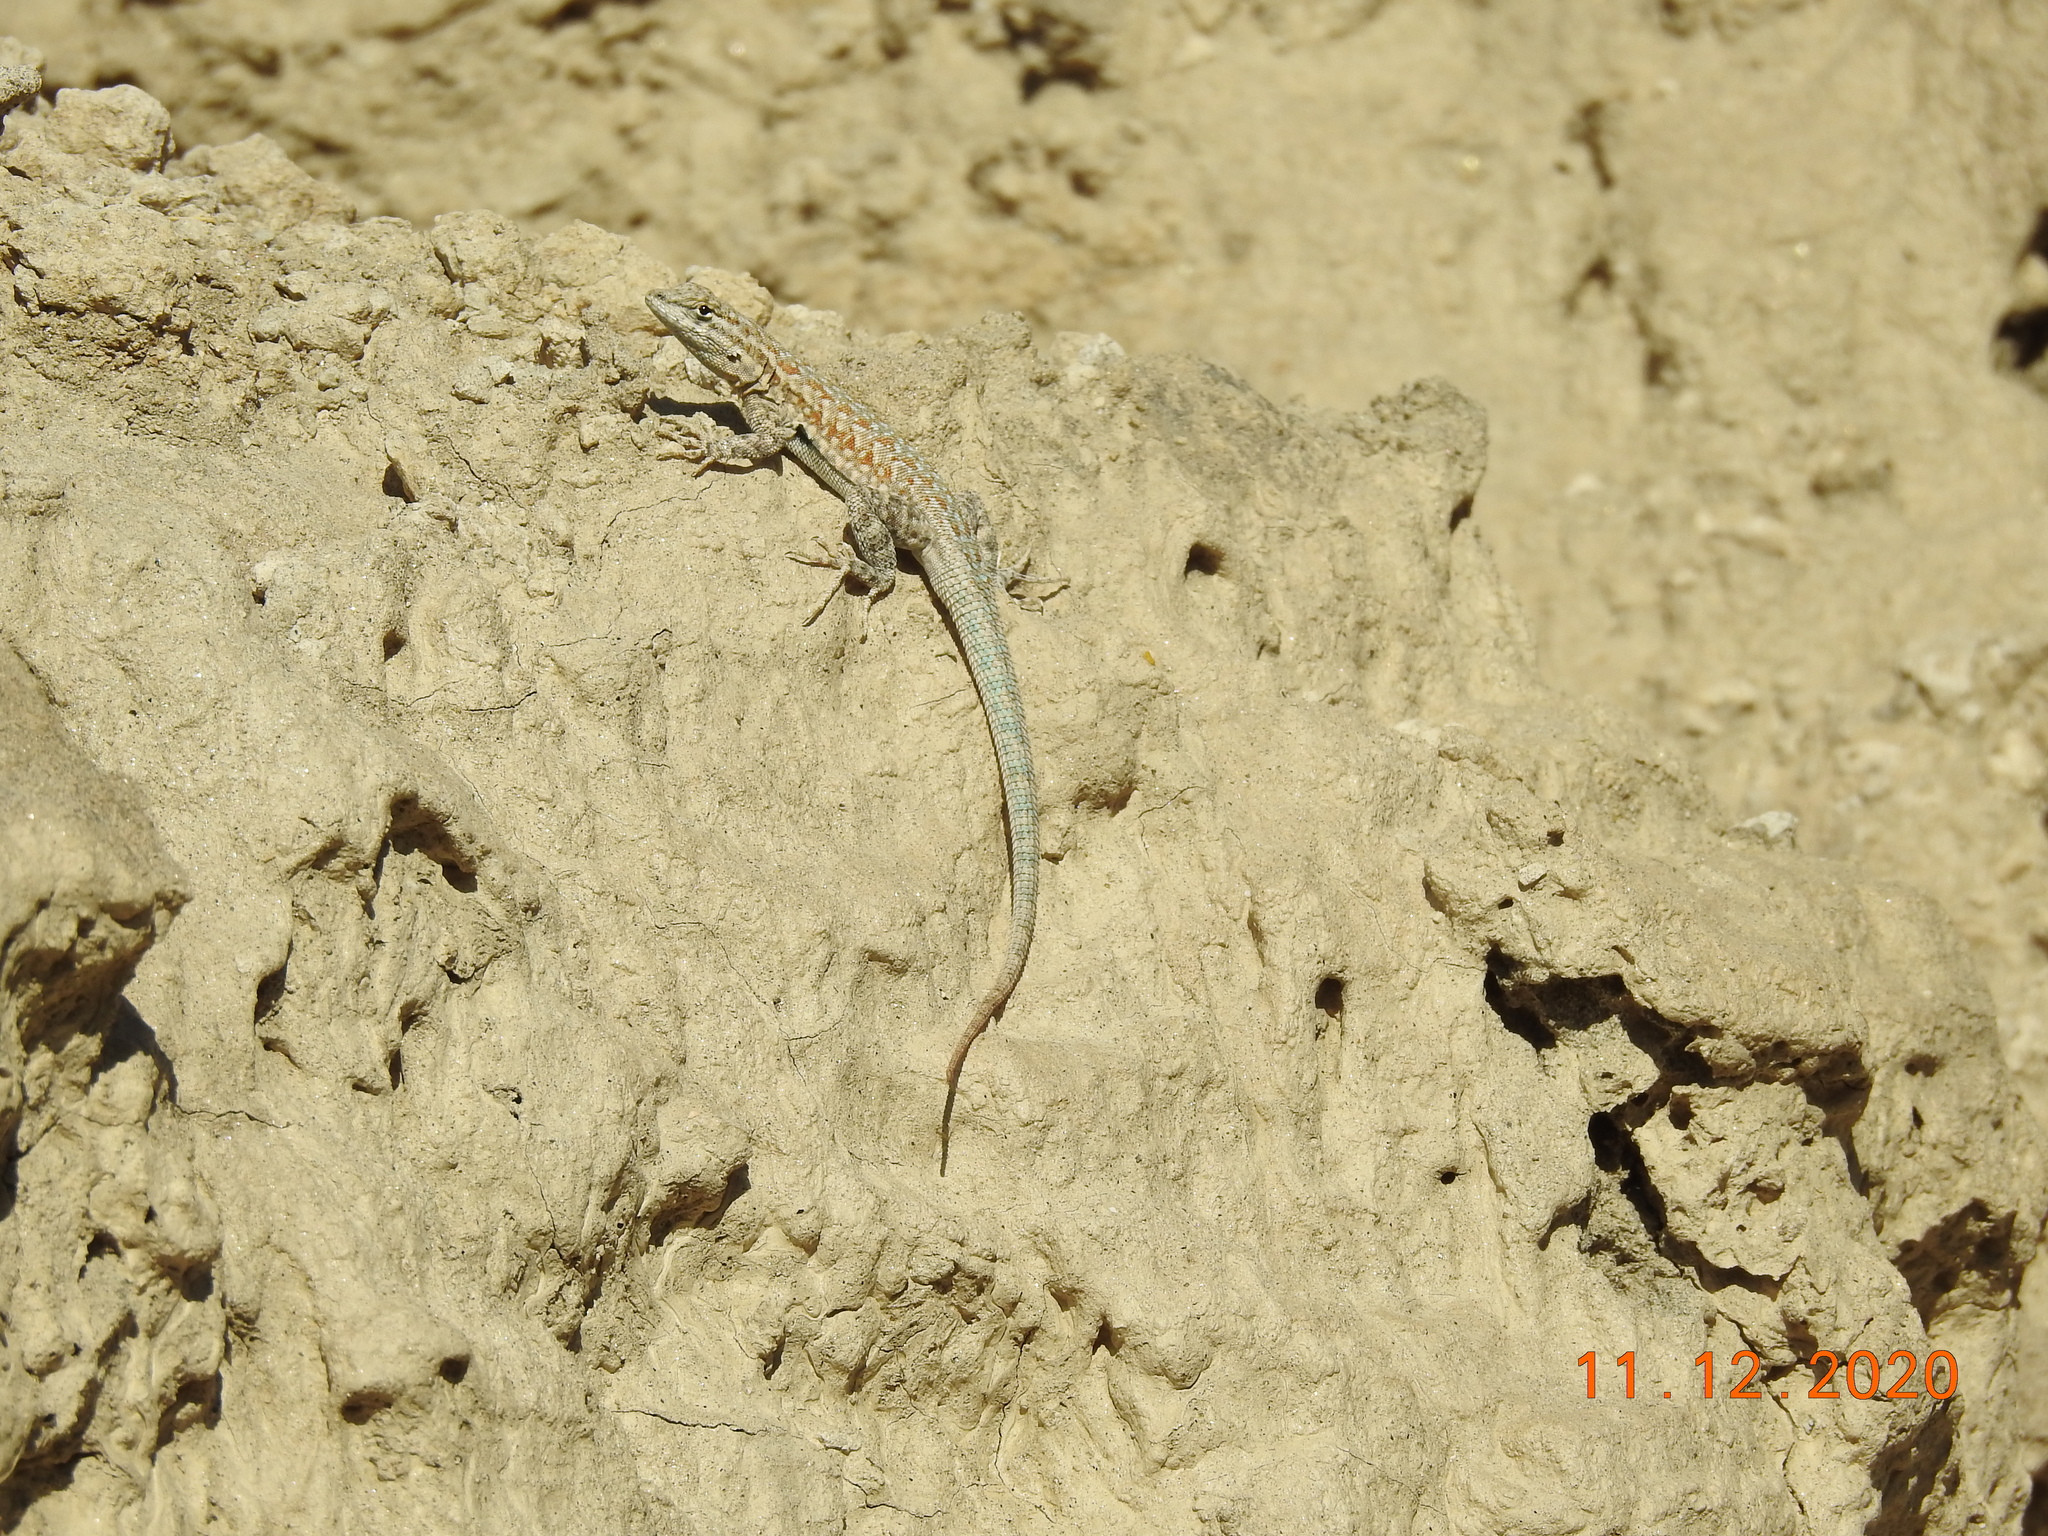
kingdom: Animalia
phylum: Chordata
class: Squamata
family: Phrynosomatidae
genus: Uta
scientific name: Uta stansburiana
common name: Side-blotched lizard
